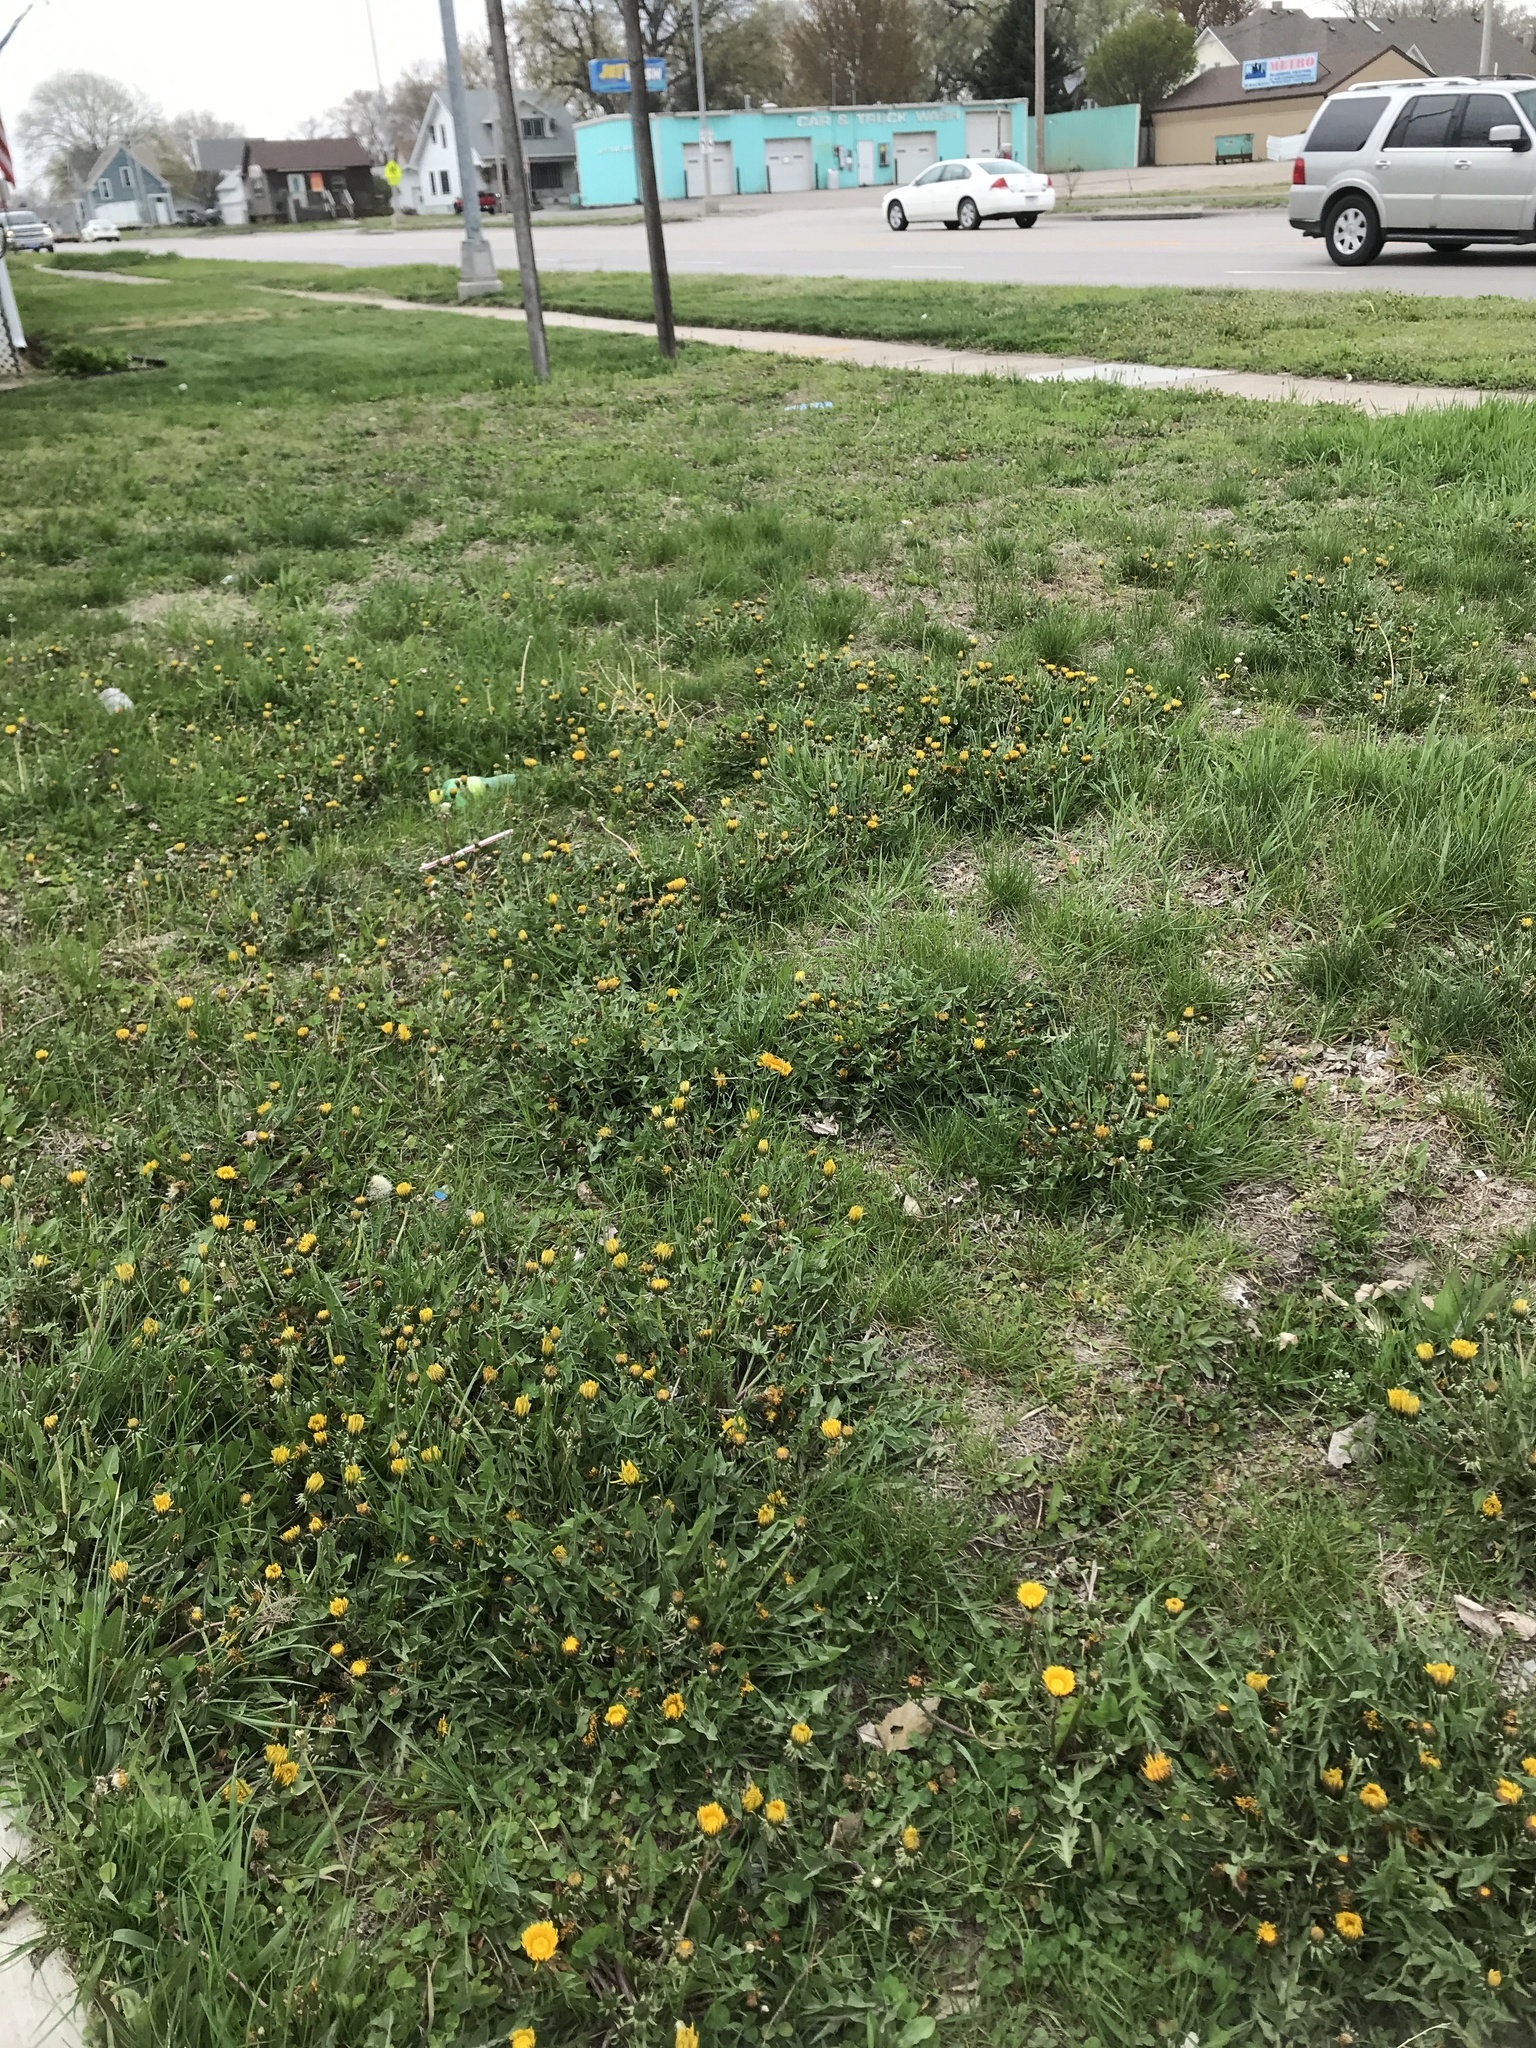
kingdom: Plantae
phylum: Tracheophyta
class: Magnoliopsida
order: Asterales
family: Asteraceae
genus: Taraxacum
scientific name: Taraxacum
